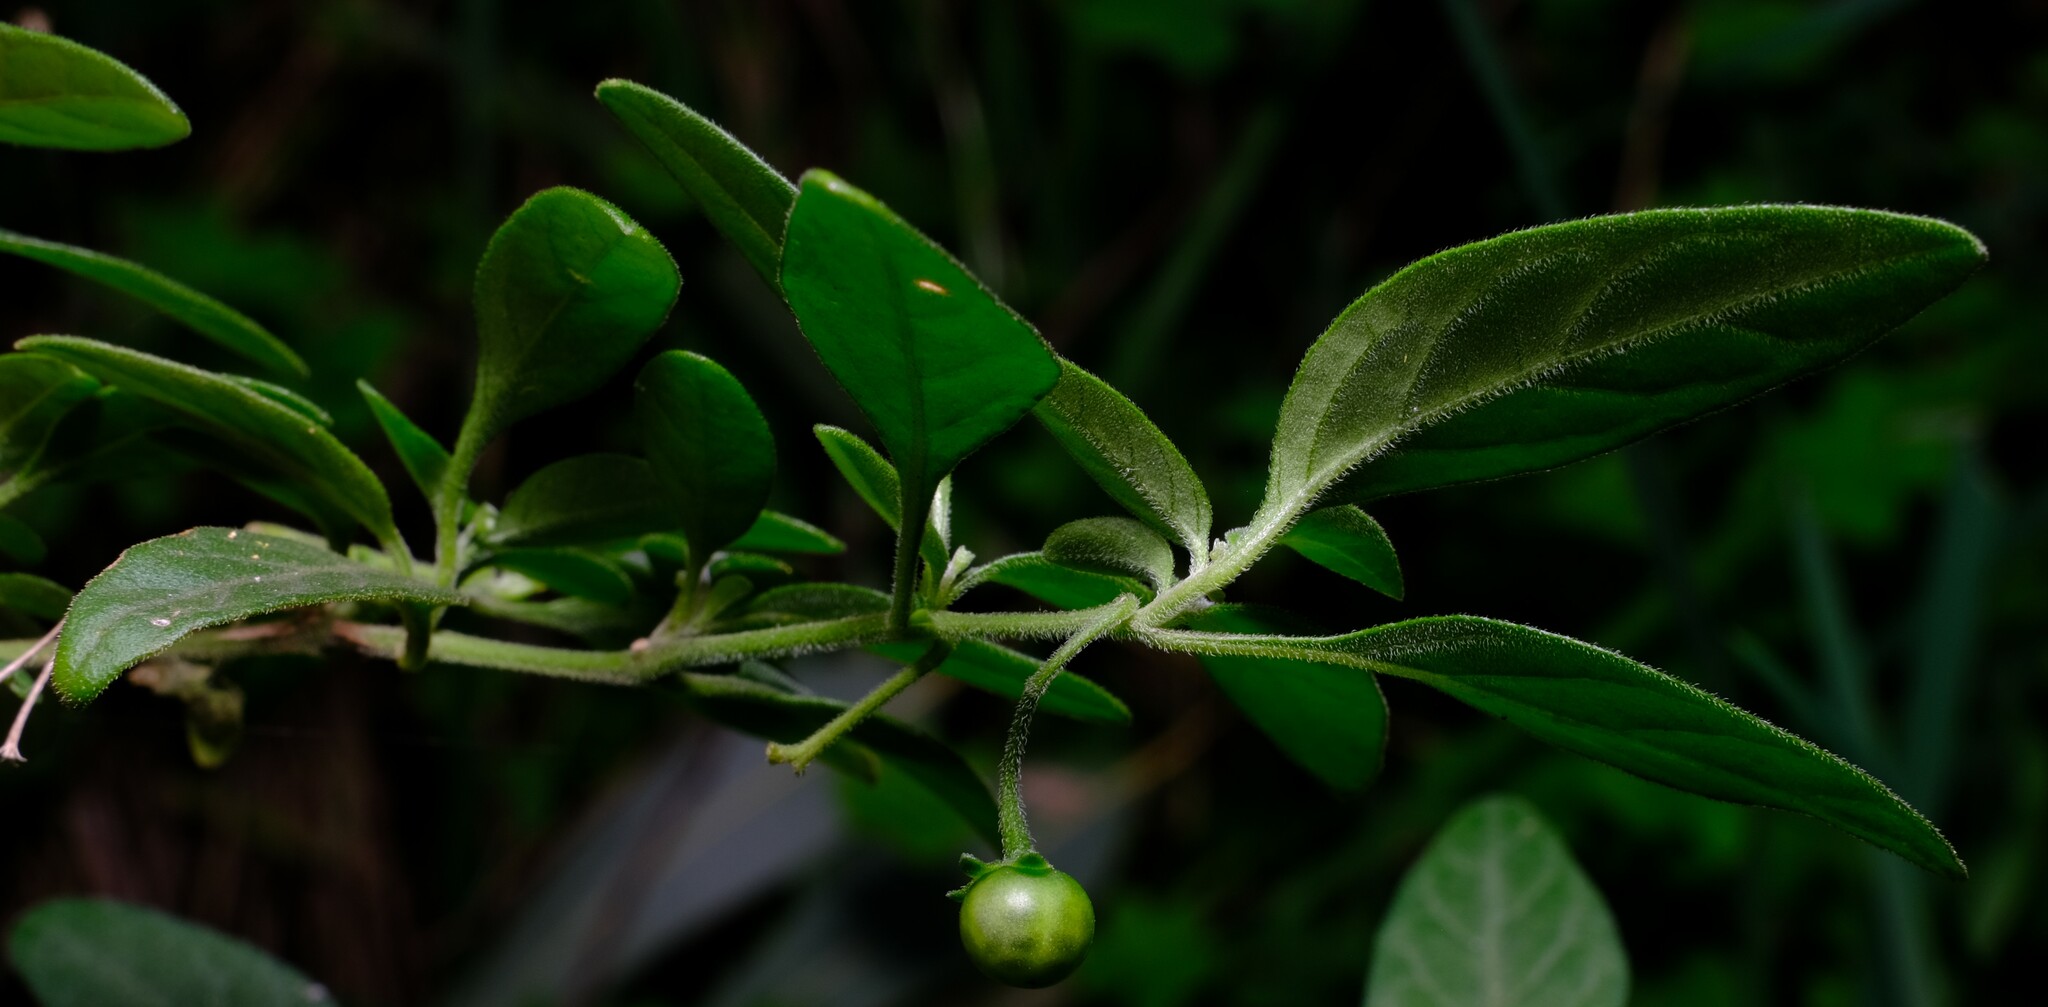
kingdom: Plantae
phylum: Tracheophyta
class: Magnoliopsida
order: Solanales
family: Solanaceae
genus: Solanum
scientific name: Solanum chenopodioides
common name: Tall nightshade
